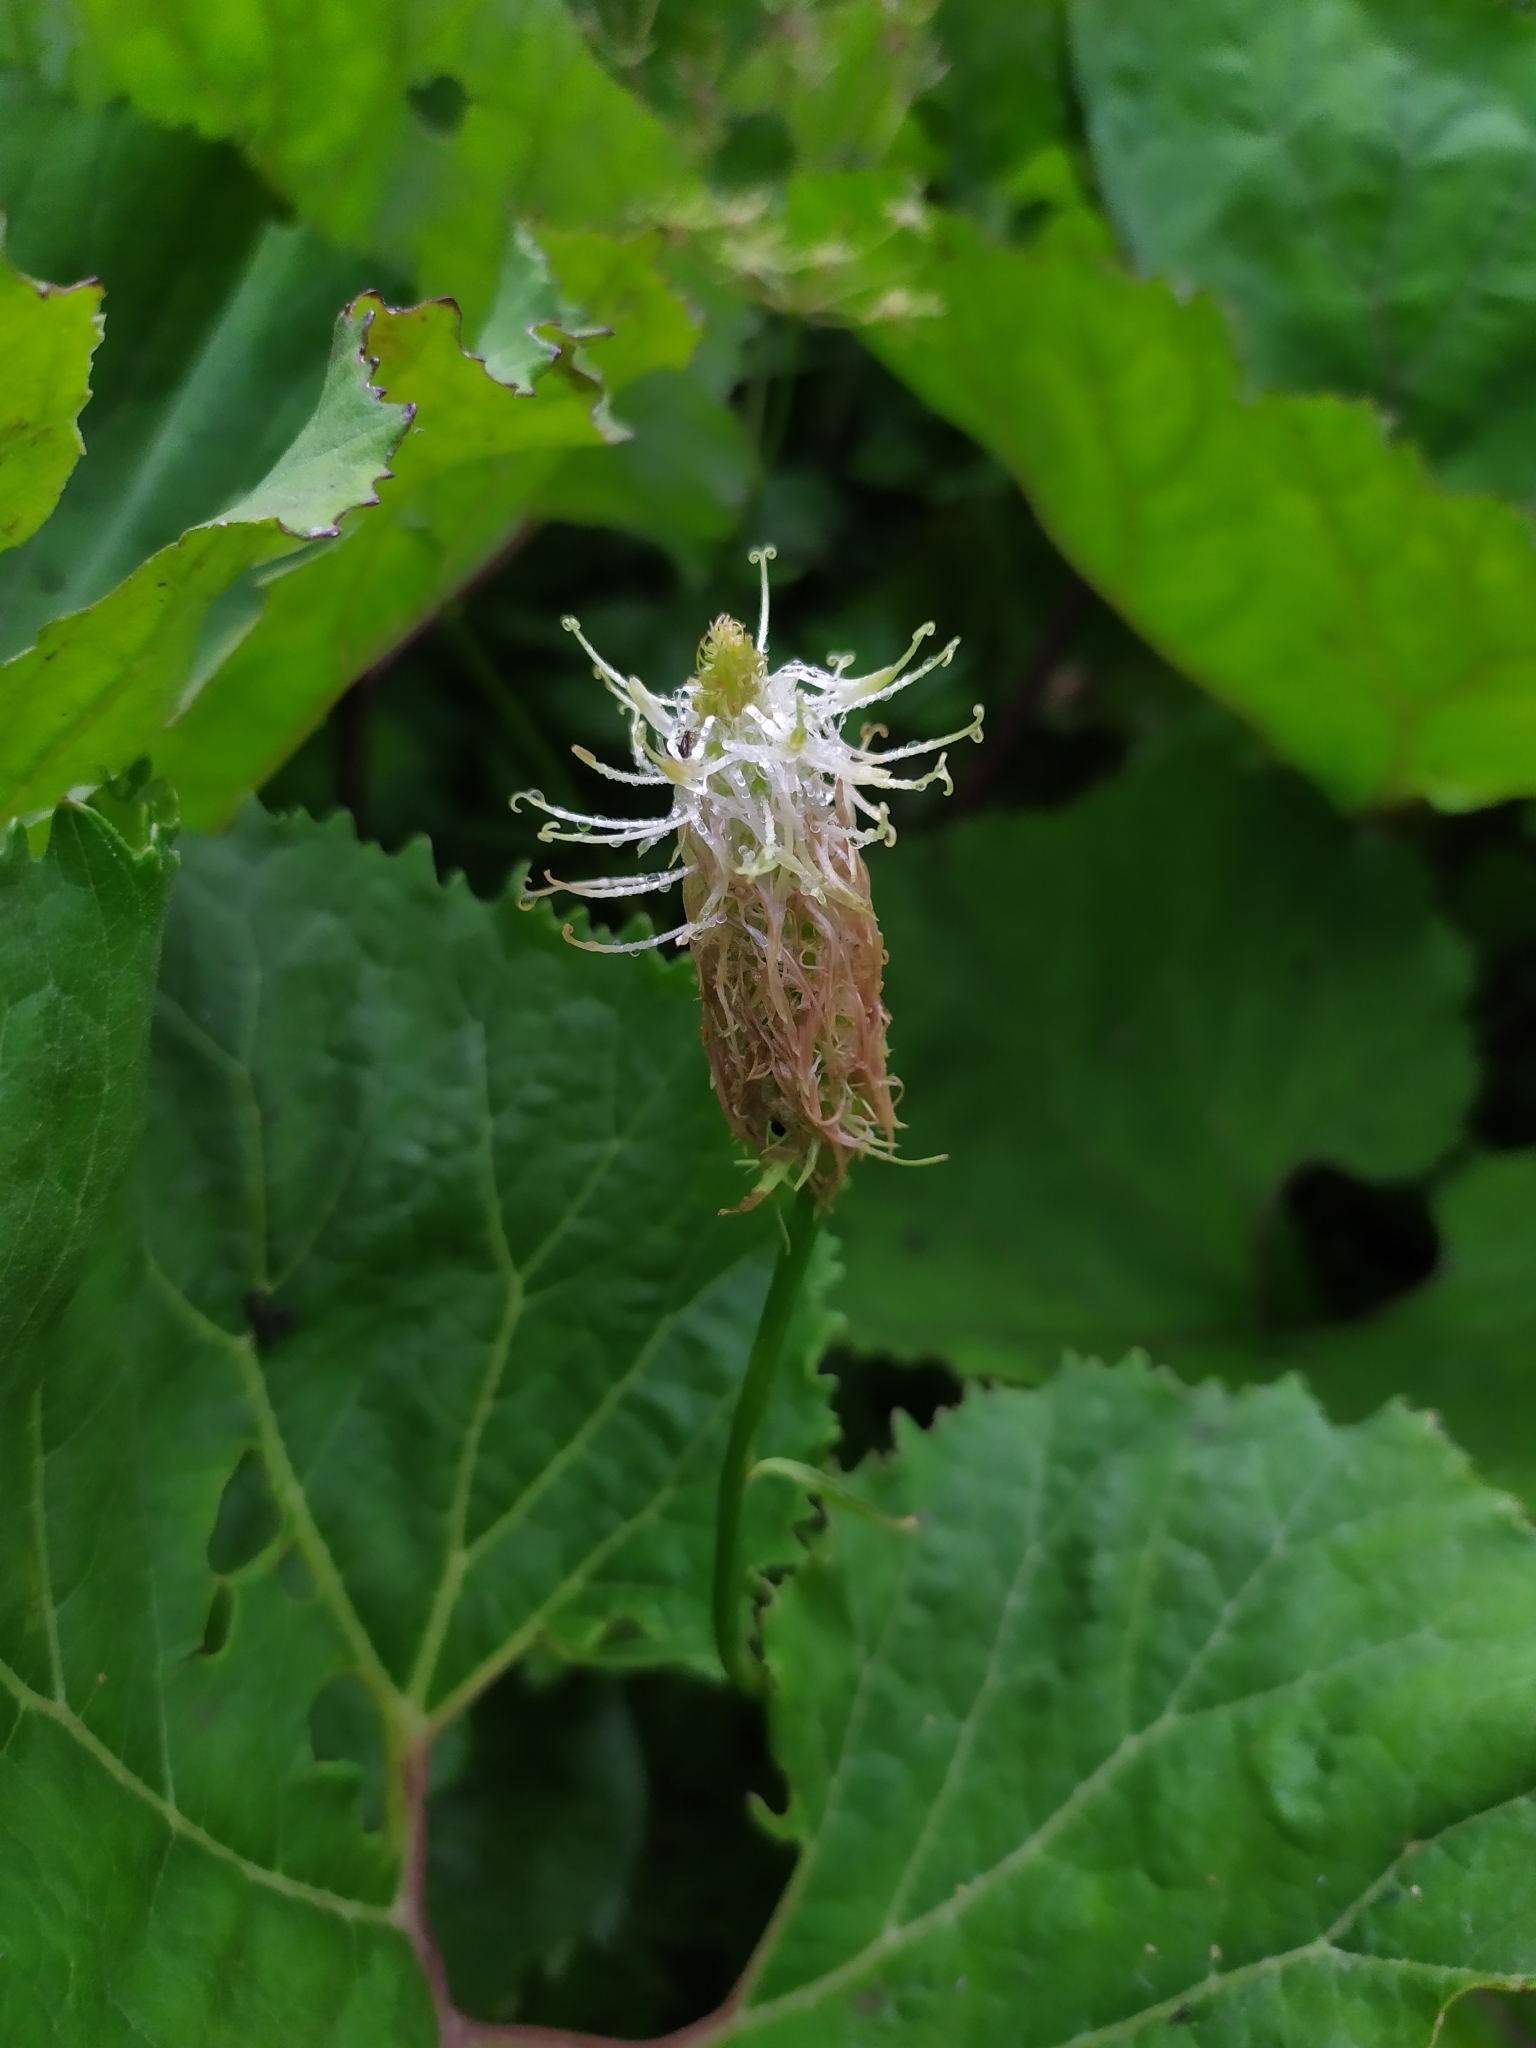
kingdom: Plantae
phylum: Tracheophyta
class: Magnoliopsida
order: Asterales
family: Campanulaceae
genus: Phyteuma
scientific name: Phyteuma spicatum
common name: Spiked rampion
